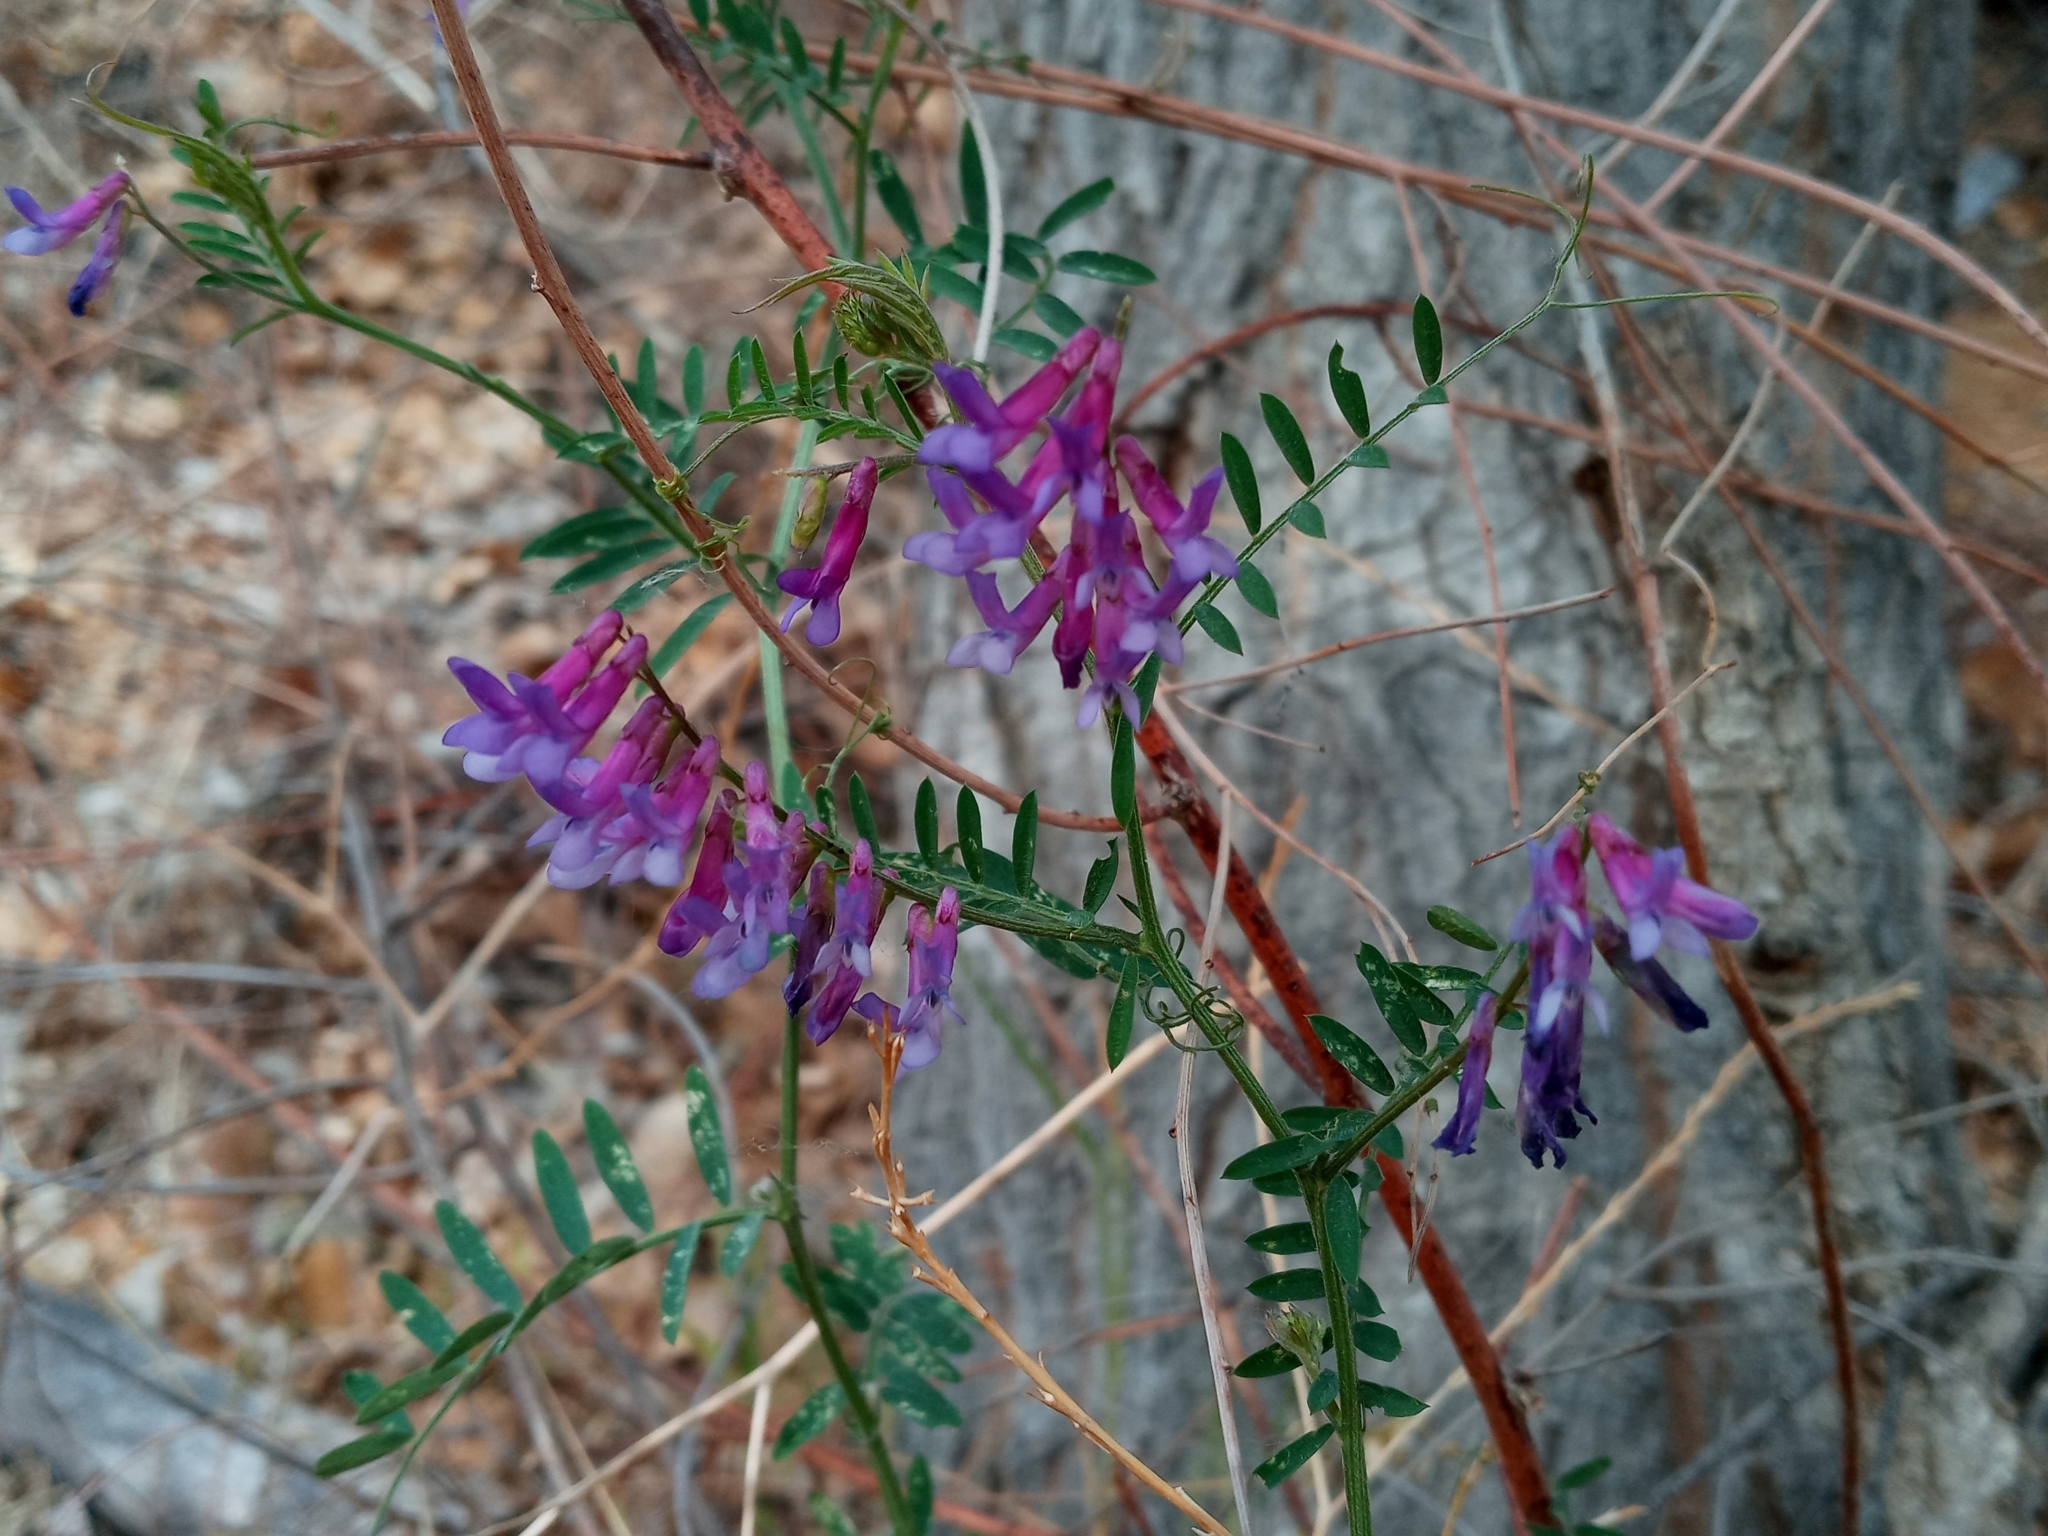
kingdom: Plantae
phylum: Tracheophyta
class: Magnoliopsida
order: Fabales
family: Fabaceae
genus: Vicia
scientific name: Vicia villosa
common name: Fodder vetch
